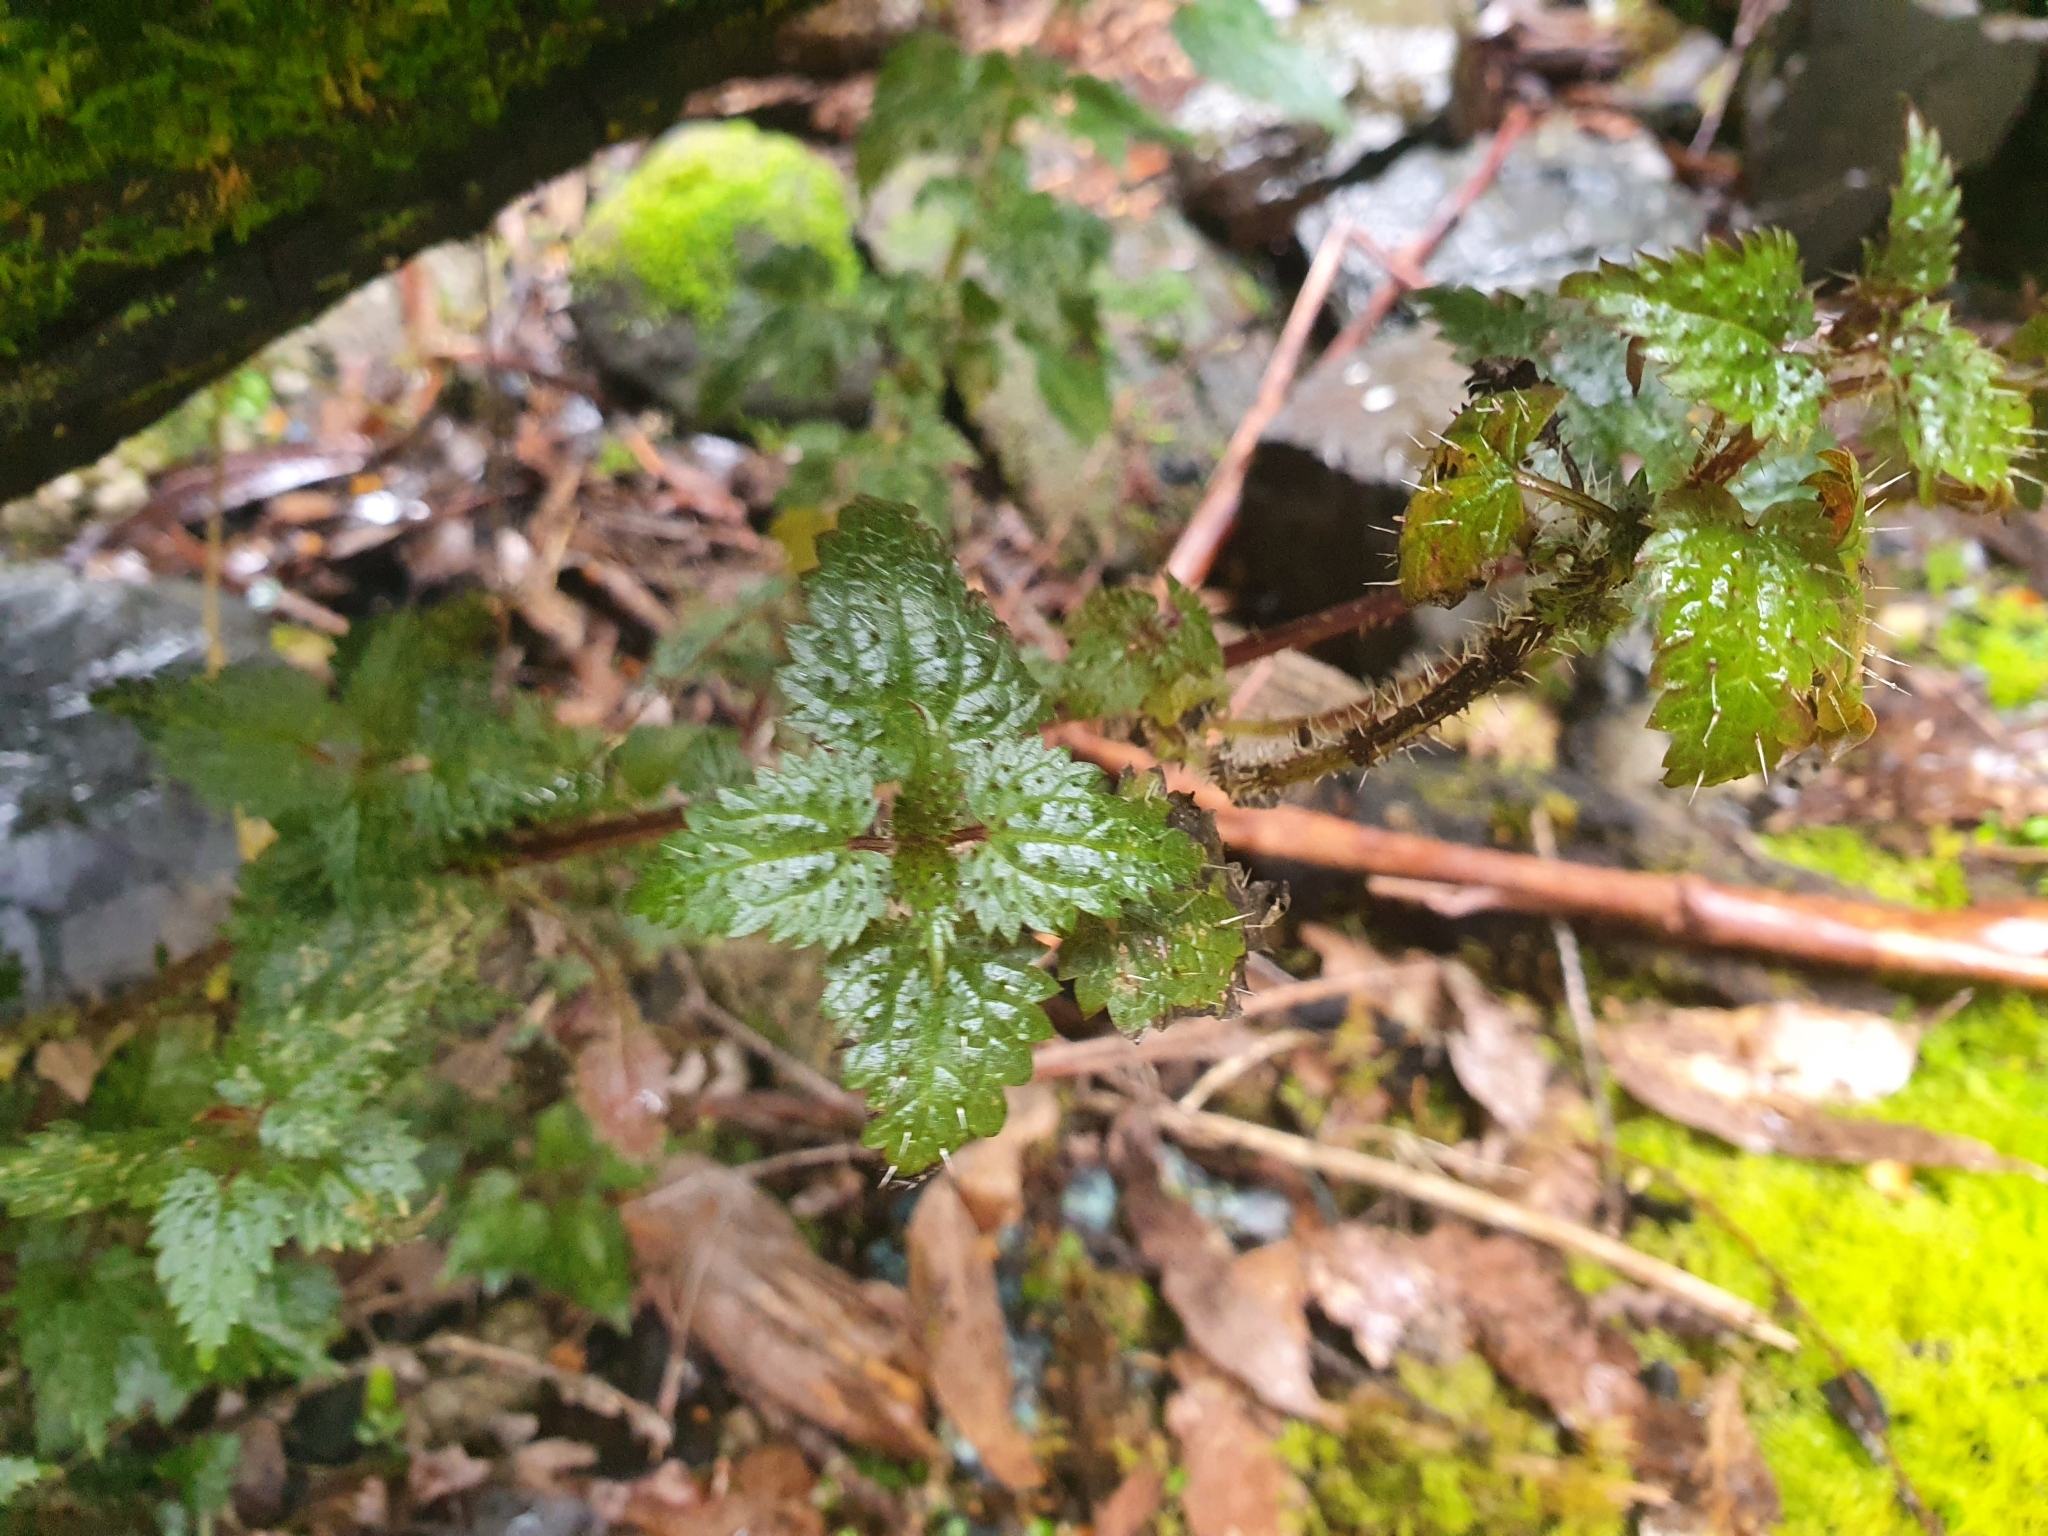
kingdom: Plantae
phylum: Tracheophyta
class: Magnoliopsida
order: Rosales
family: Urticaceae
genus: Urtica
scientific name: Urtica incisa
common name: Scrub nettle
